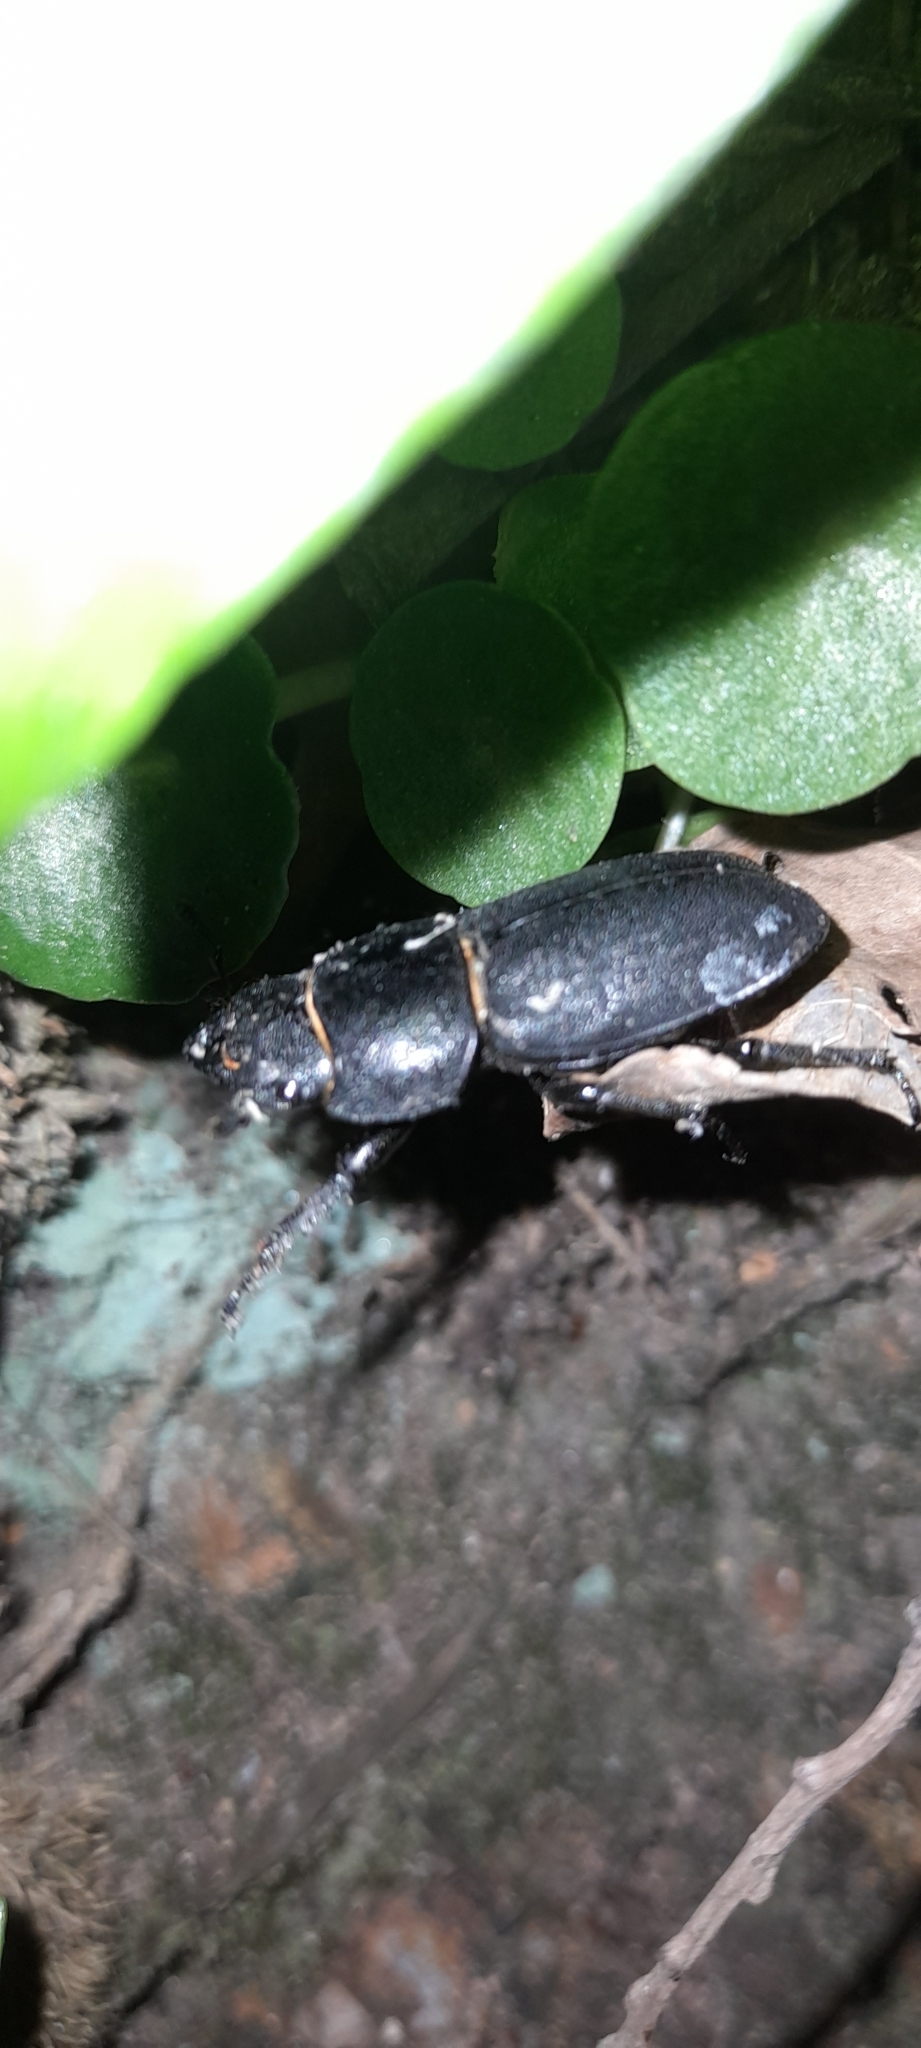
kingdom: Animalia
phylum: Arthropoda
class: Insecta
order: Coleoptera
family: Lucanidae
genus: Dorcus
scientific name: Dorcus parallelipipedus
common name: Lesser stag beetle
